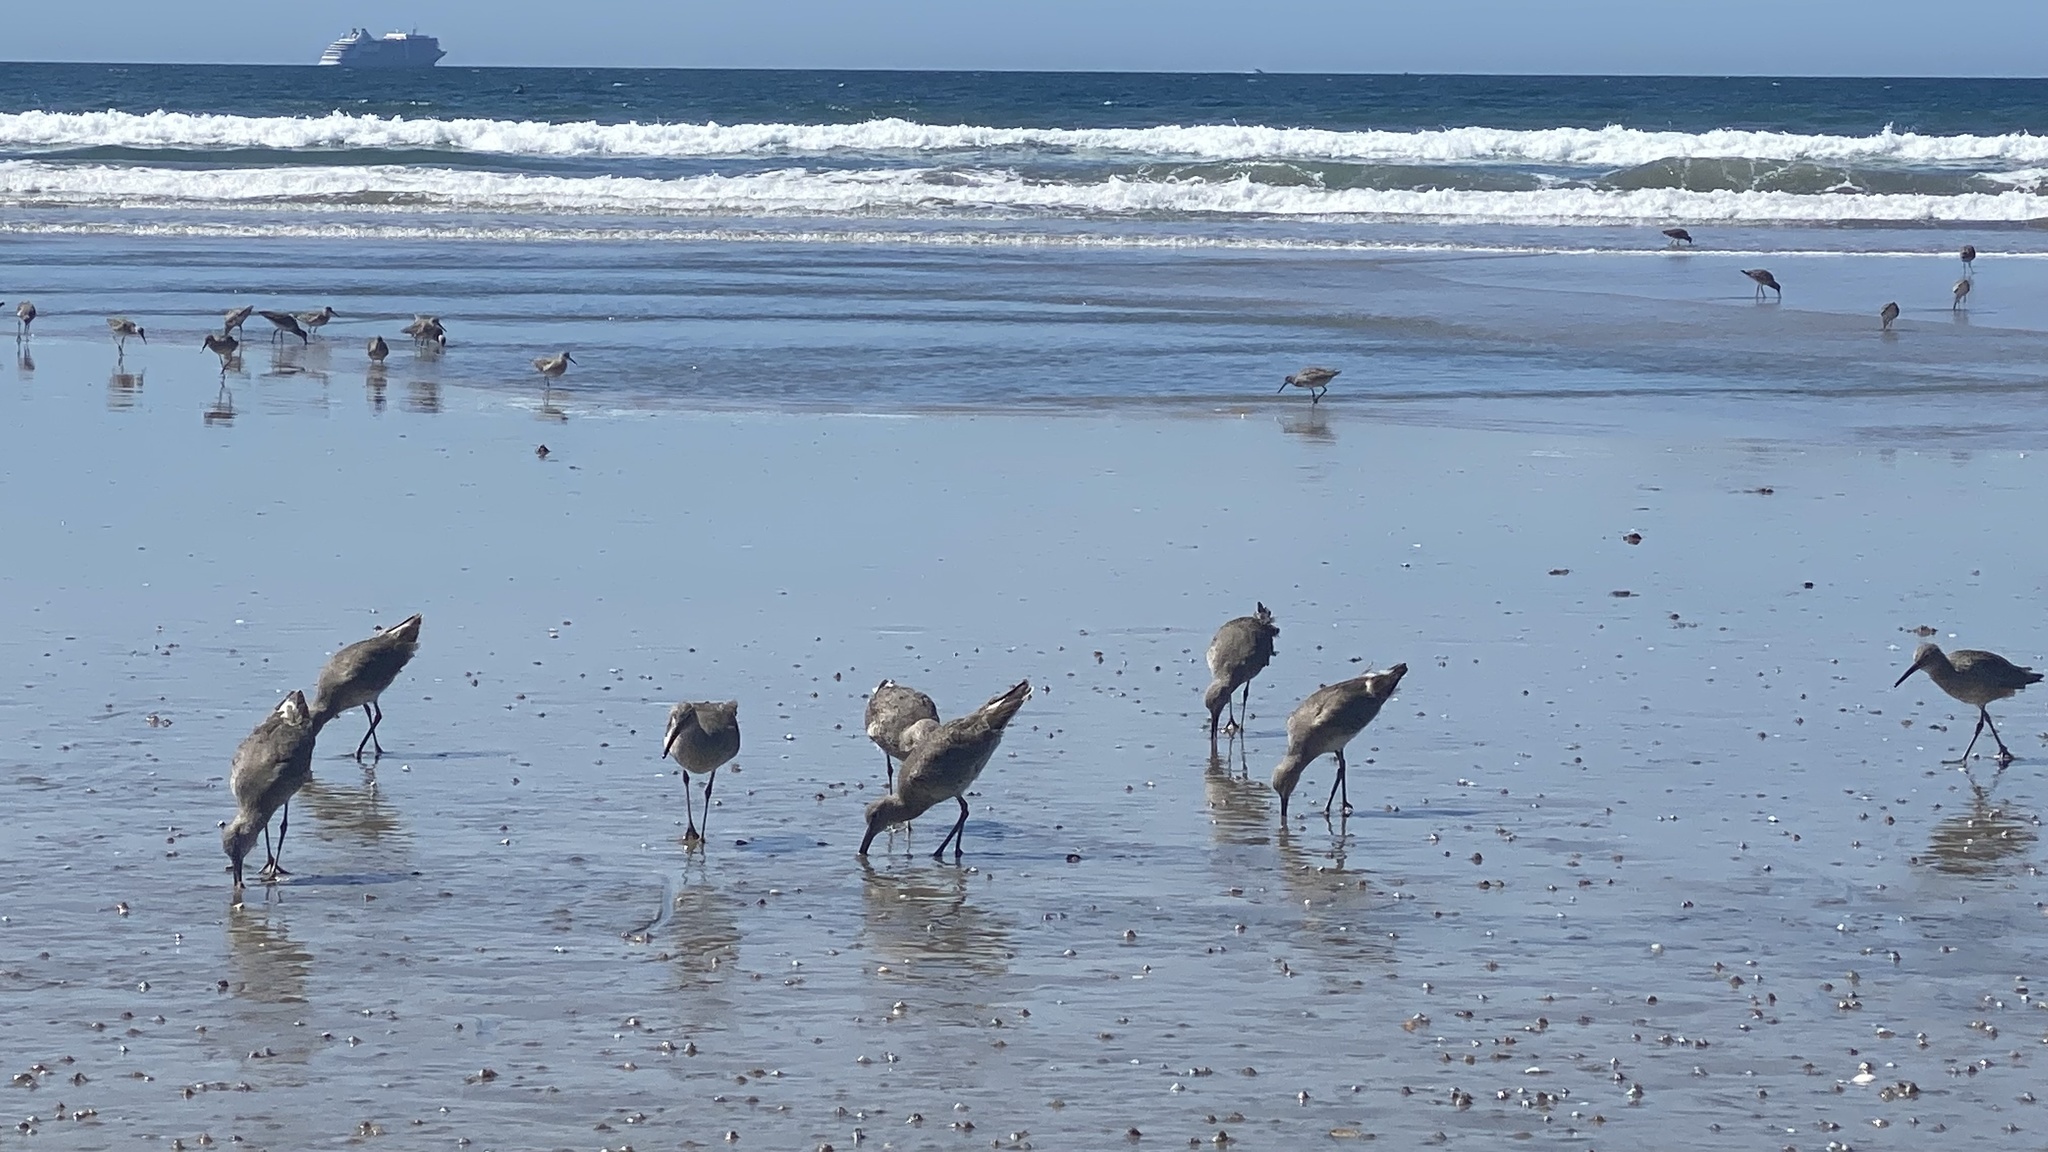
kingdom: Animalia
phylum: Chordata
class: Aves
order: Charadriiformes
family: Scolopacidae
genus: Tringa
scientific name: Tringa semipalmata
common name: Willet
